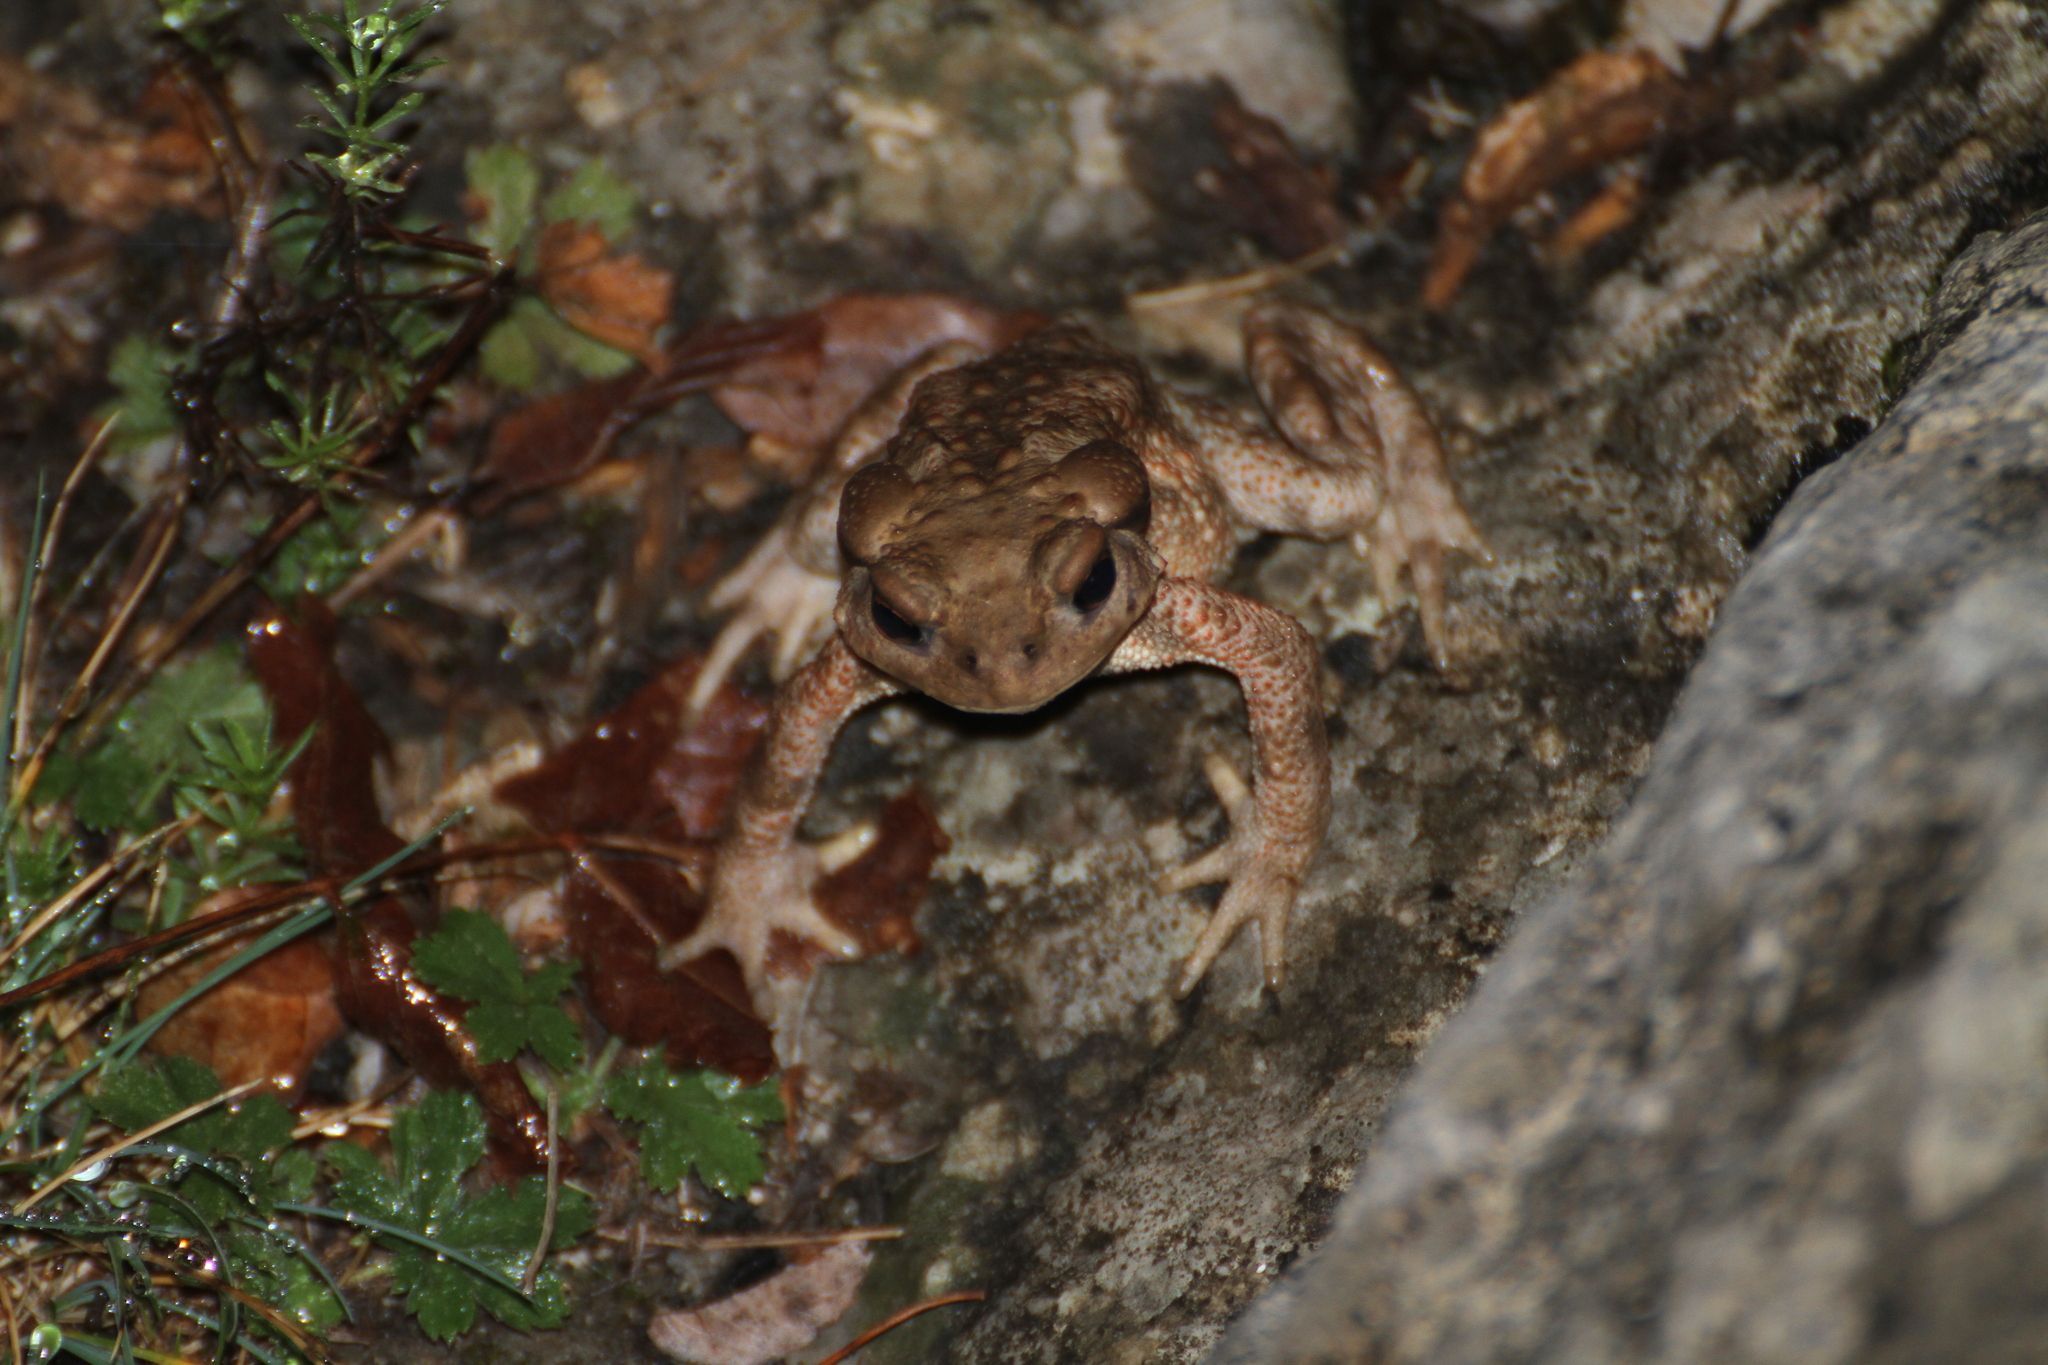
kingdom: Animalia
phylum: Chordata
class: Amphibia
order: Anura
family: Bufonidae
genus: Bufo
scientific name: Bufo spinosus
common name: Western common toad
